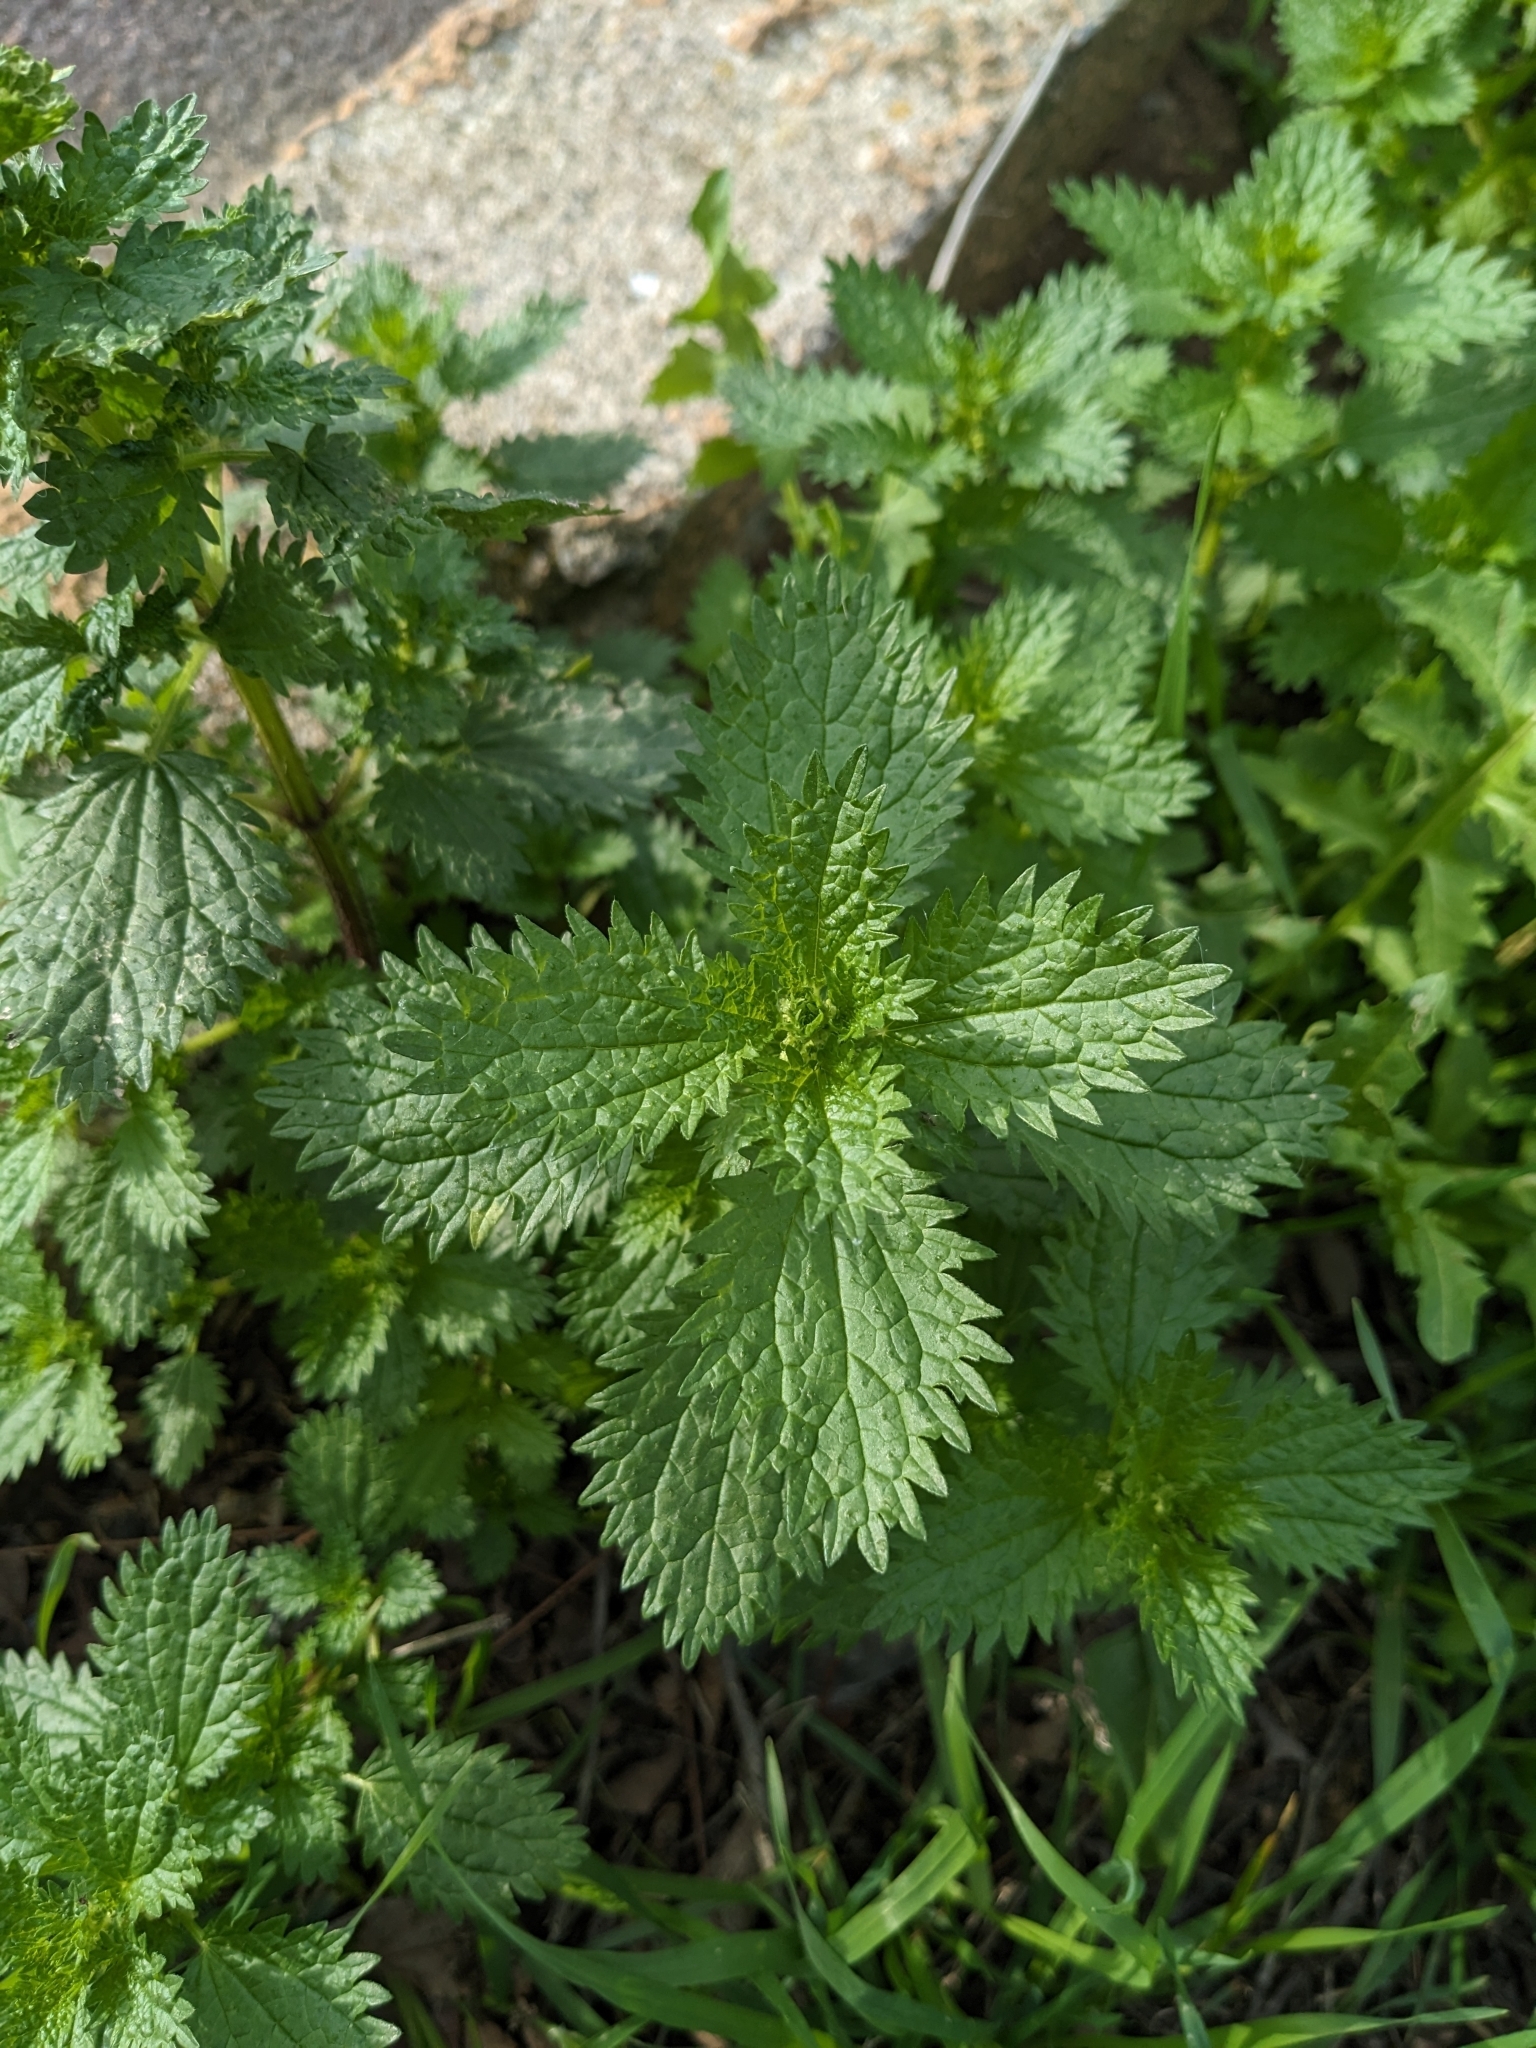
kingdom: Plantae
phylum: Tracheophyta
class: Magnoliopsida
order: Rosales
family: Urticaceae
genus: Urtica
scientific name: Urtica urens
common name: Dwarf nettle
